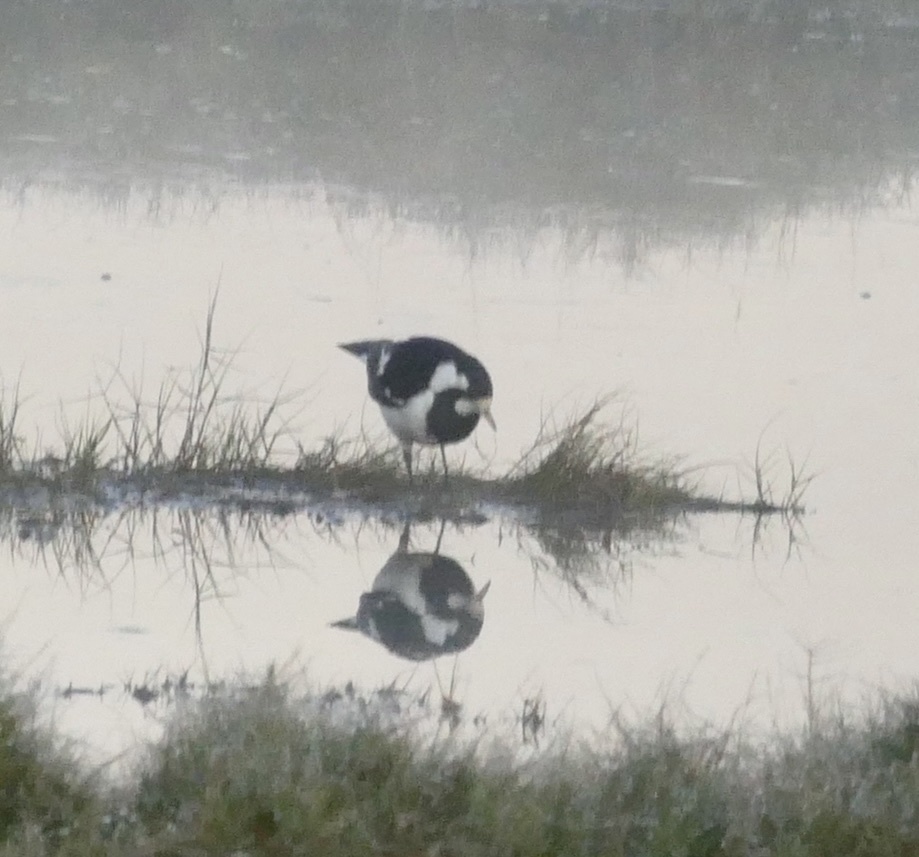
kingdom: Animalia
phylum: Chordata
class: Aves
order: Passeriformes
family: Monarchidae
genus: Grallina
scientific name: Grallina cyanoleuca
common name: Magpie-lark
